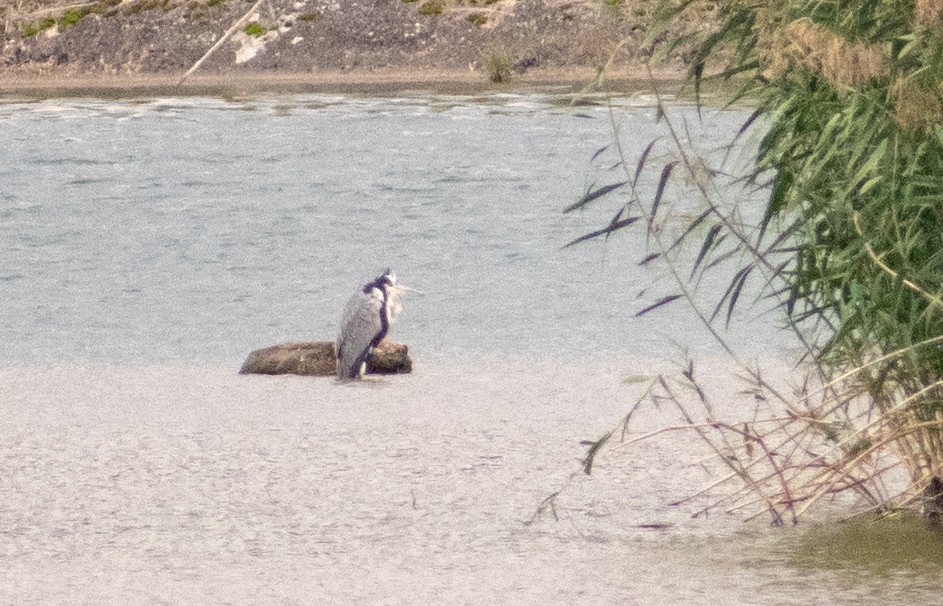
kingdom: Animalia
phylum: Chordata
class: Aves
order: Pelecaniformes
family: Ardeidae
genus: Ardea
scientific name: Ardea cinerea
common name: Grey heron
